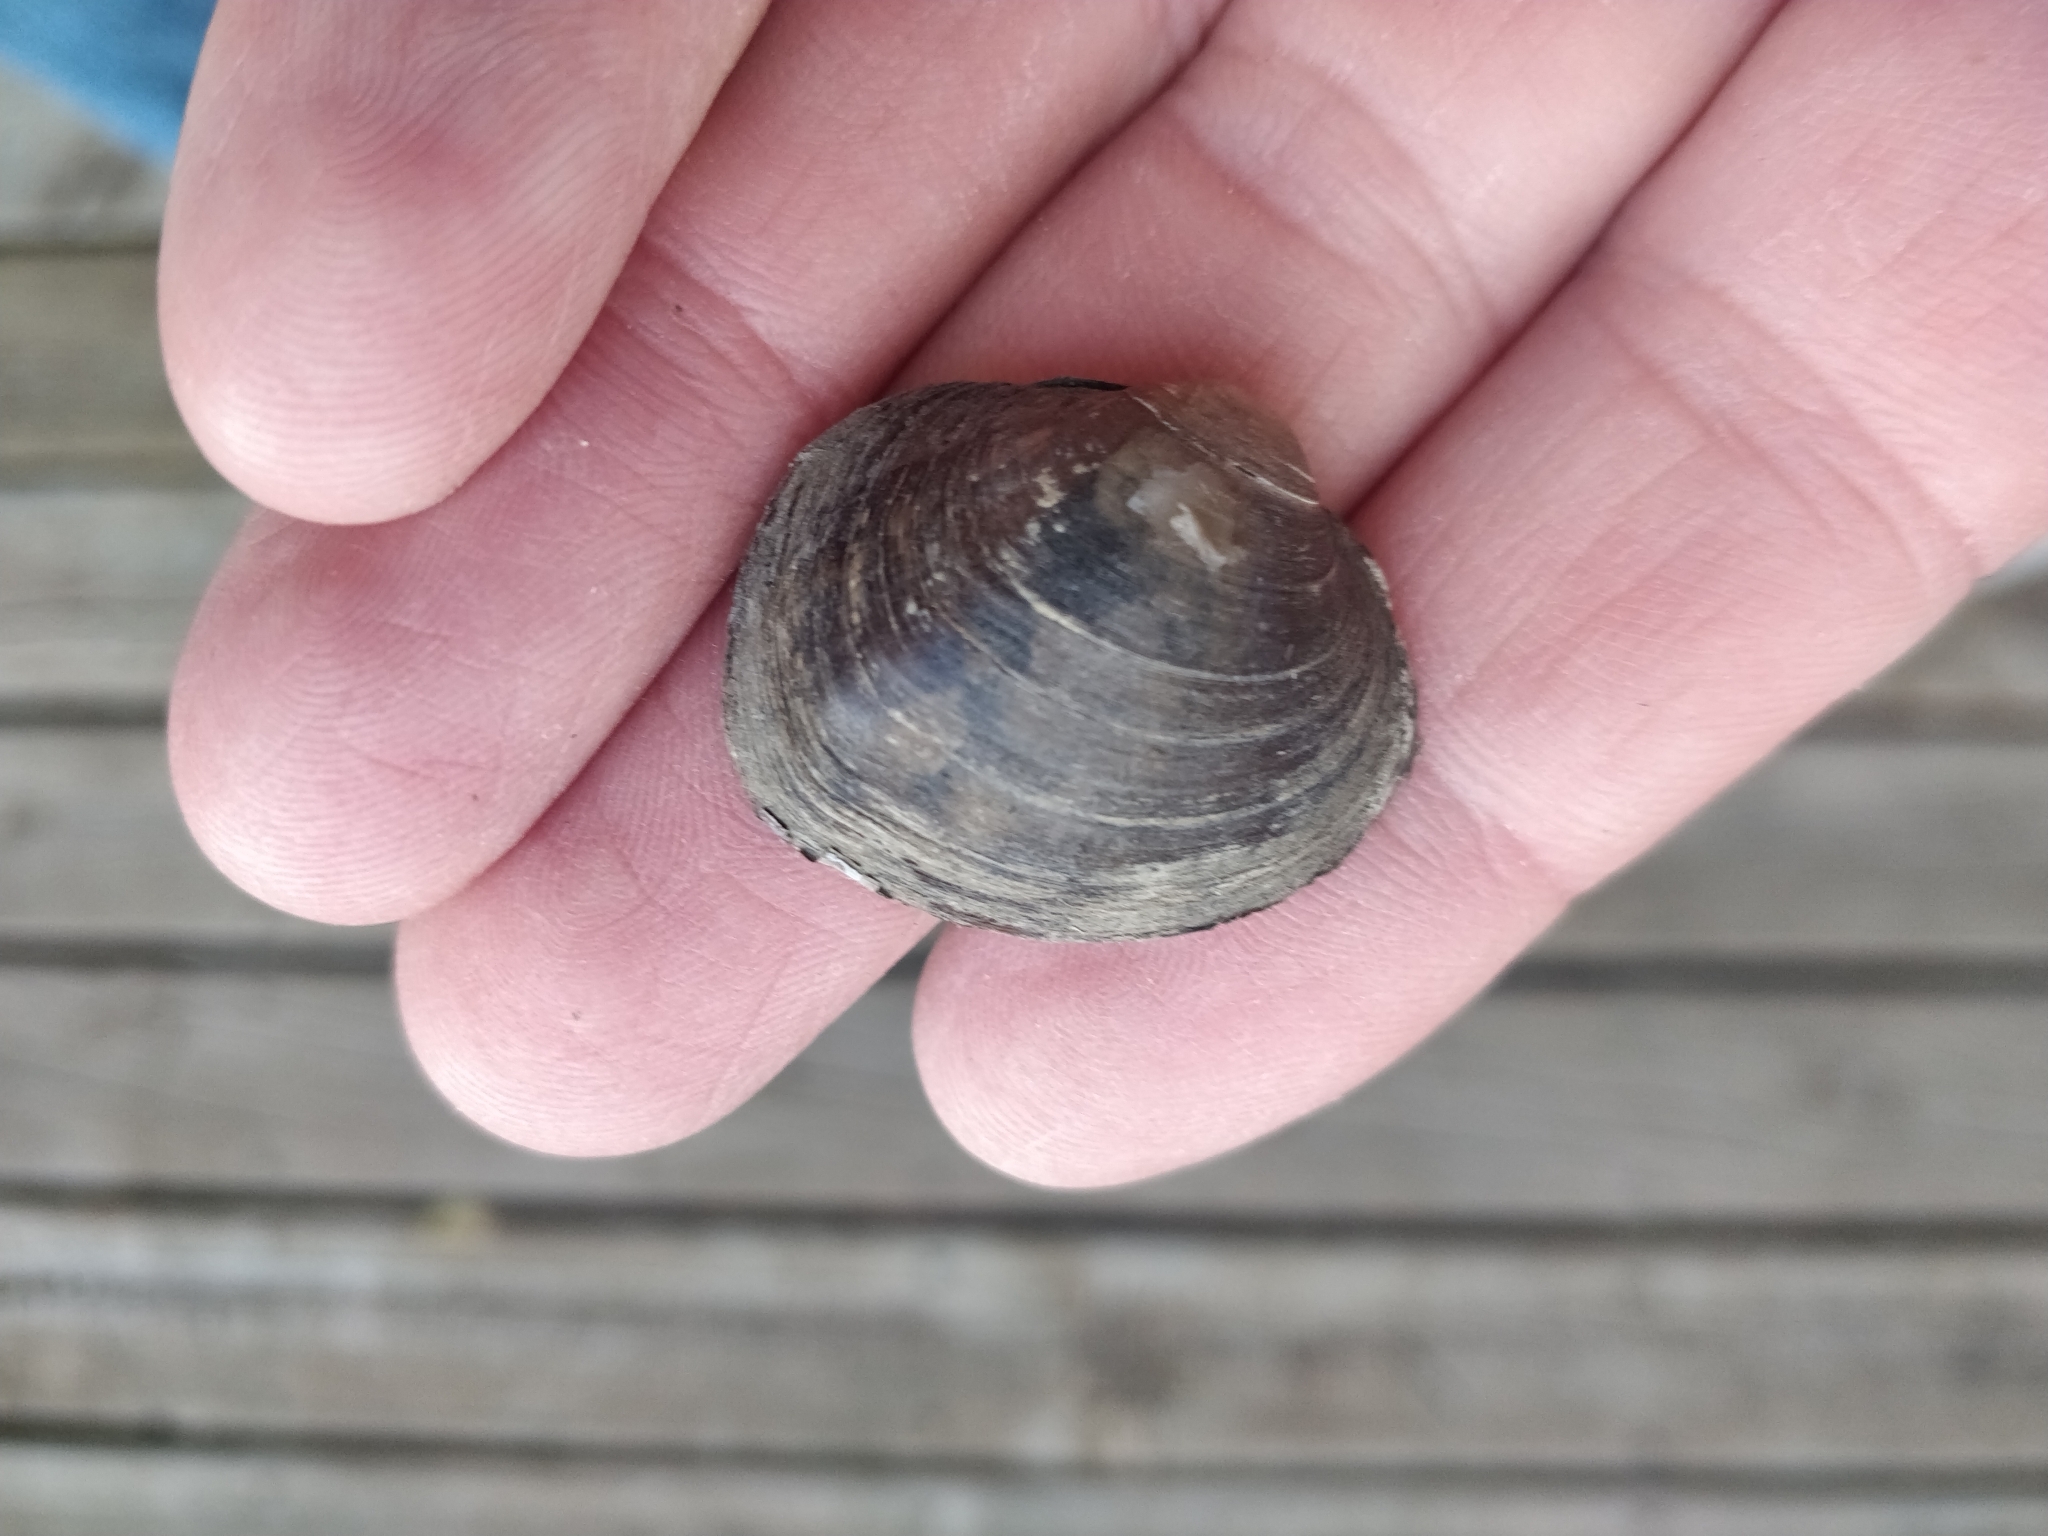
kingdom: Animalia
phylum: Mollusca
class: Bivalvia
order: Unionida
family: Unionidae
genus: Cyclonaias
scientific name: Cyclonaias pustulosa
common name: Pimpleback
